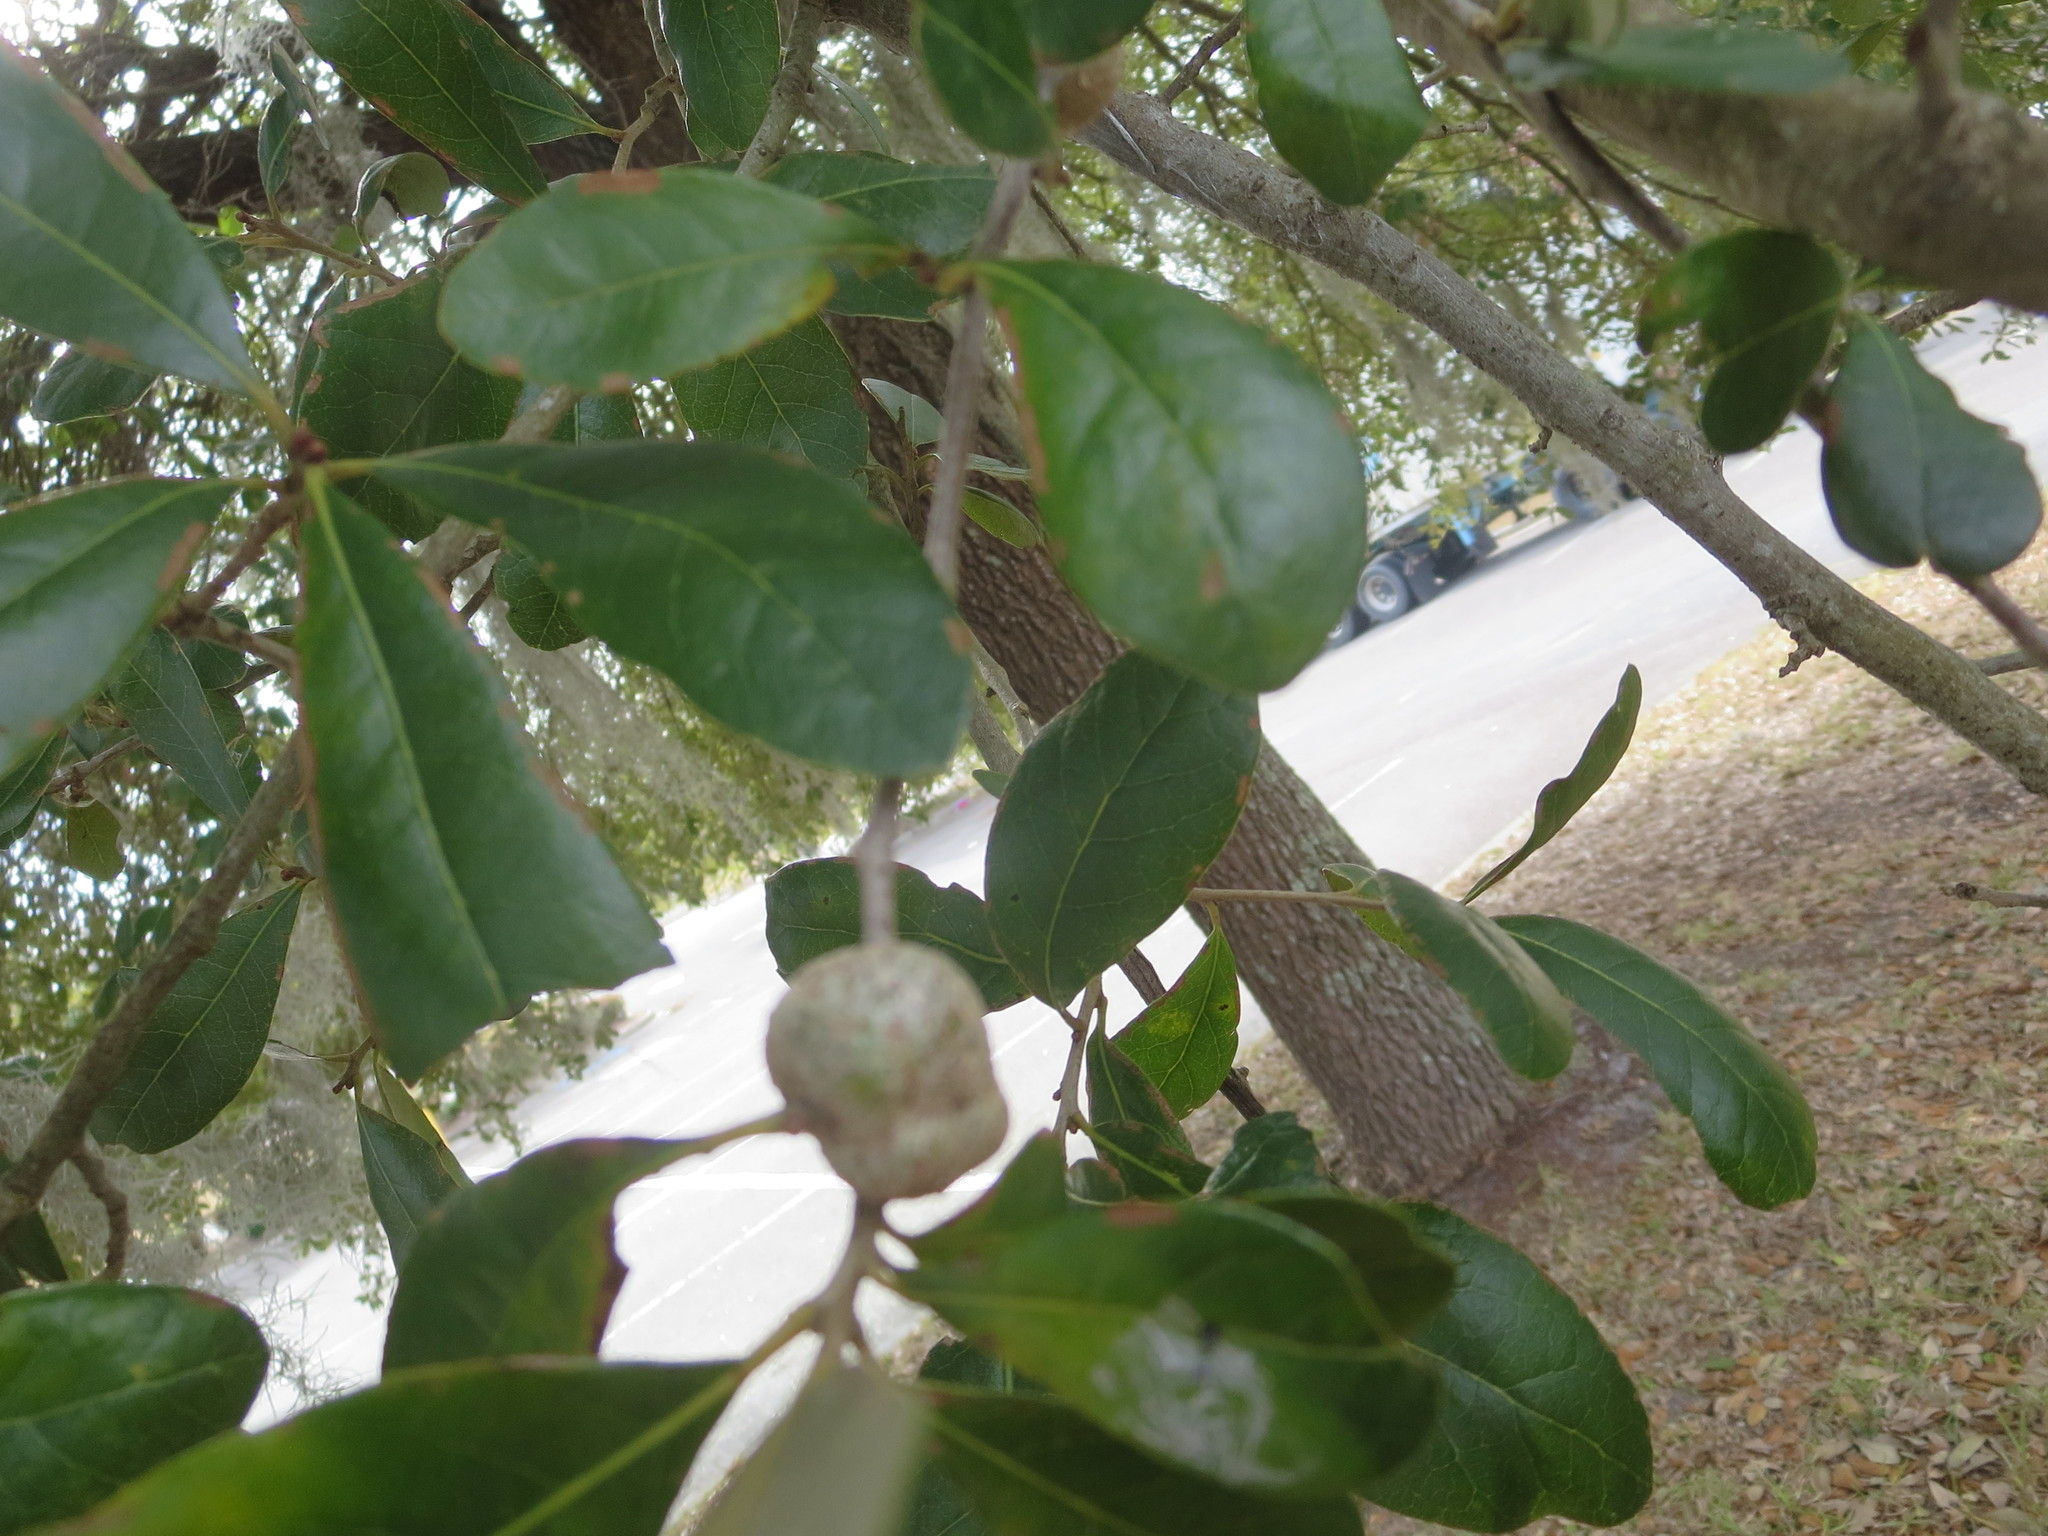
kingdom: Animalia
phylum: Arthropoda
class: Insecta
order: Hymenoptera
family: Cynipidae
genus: Callirhytis
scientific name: Callirhytis
